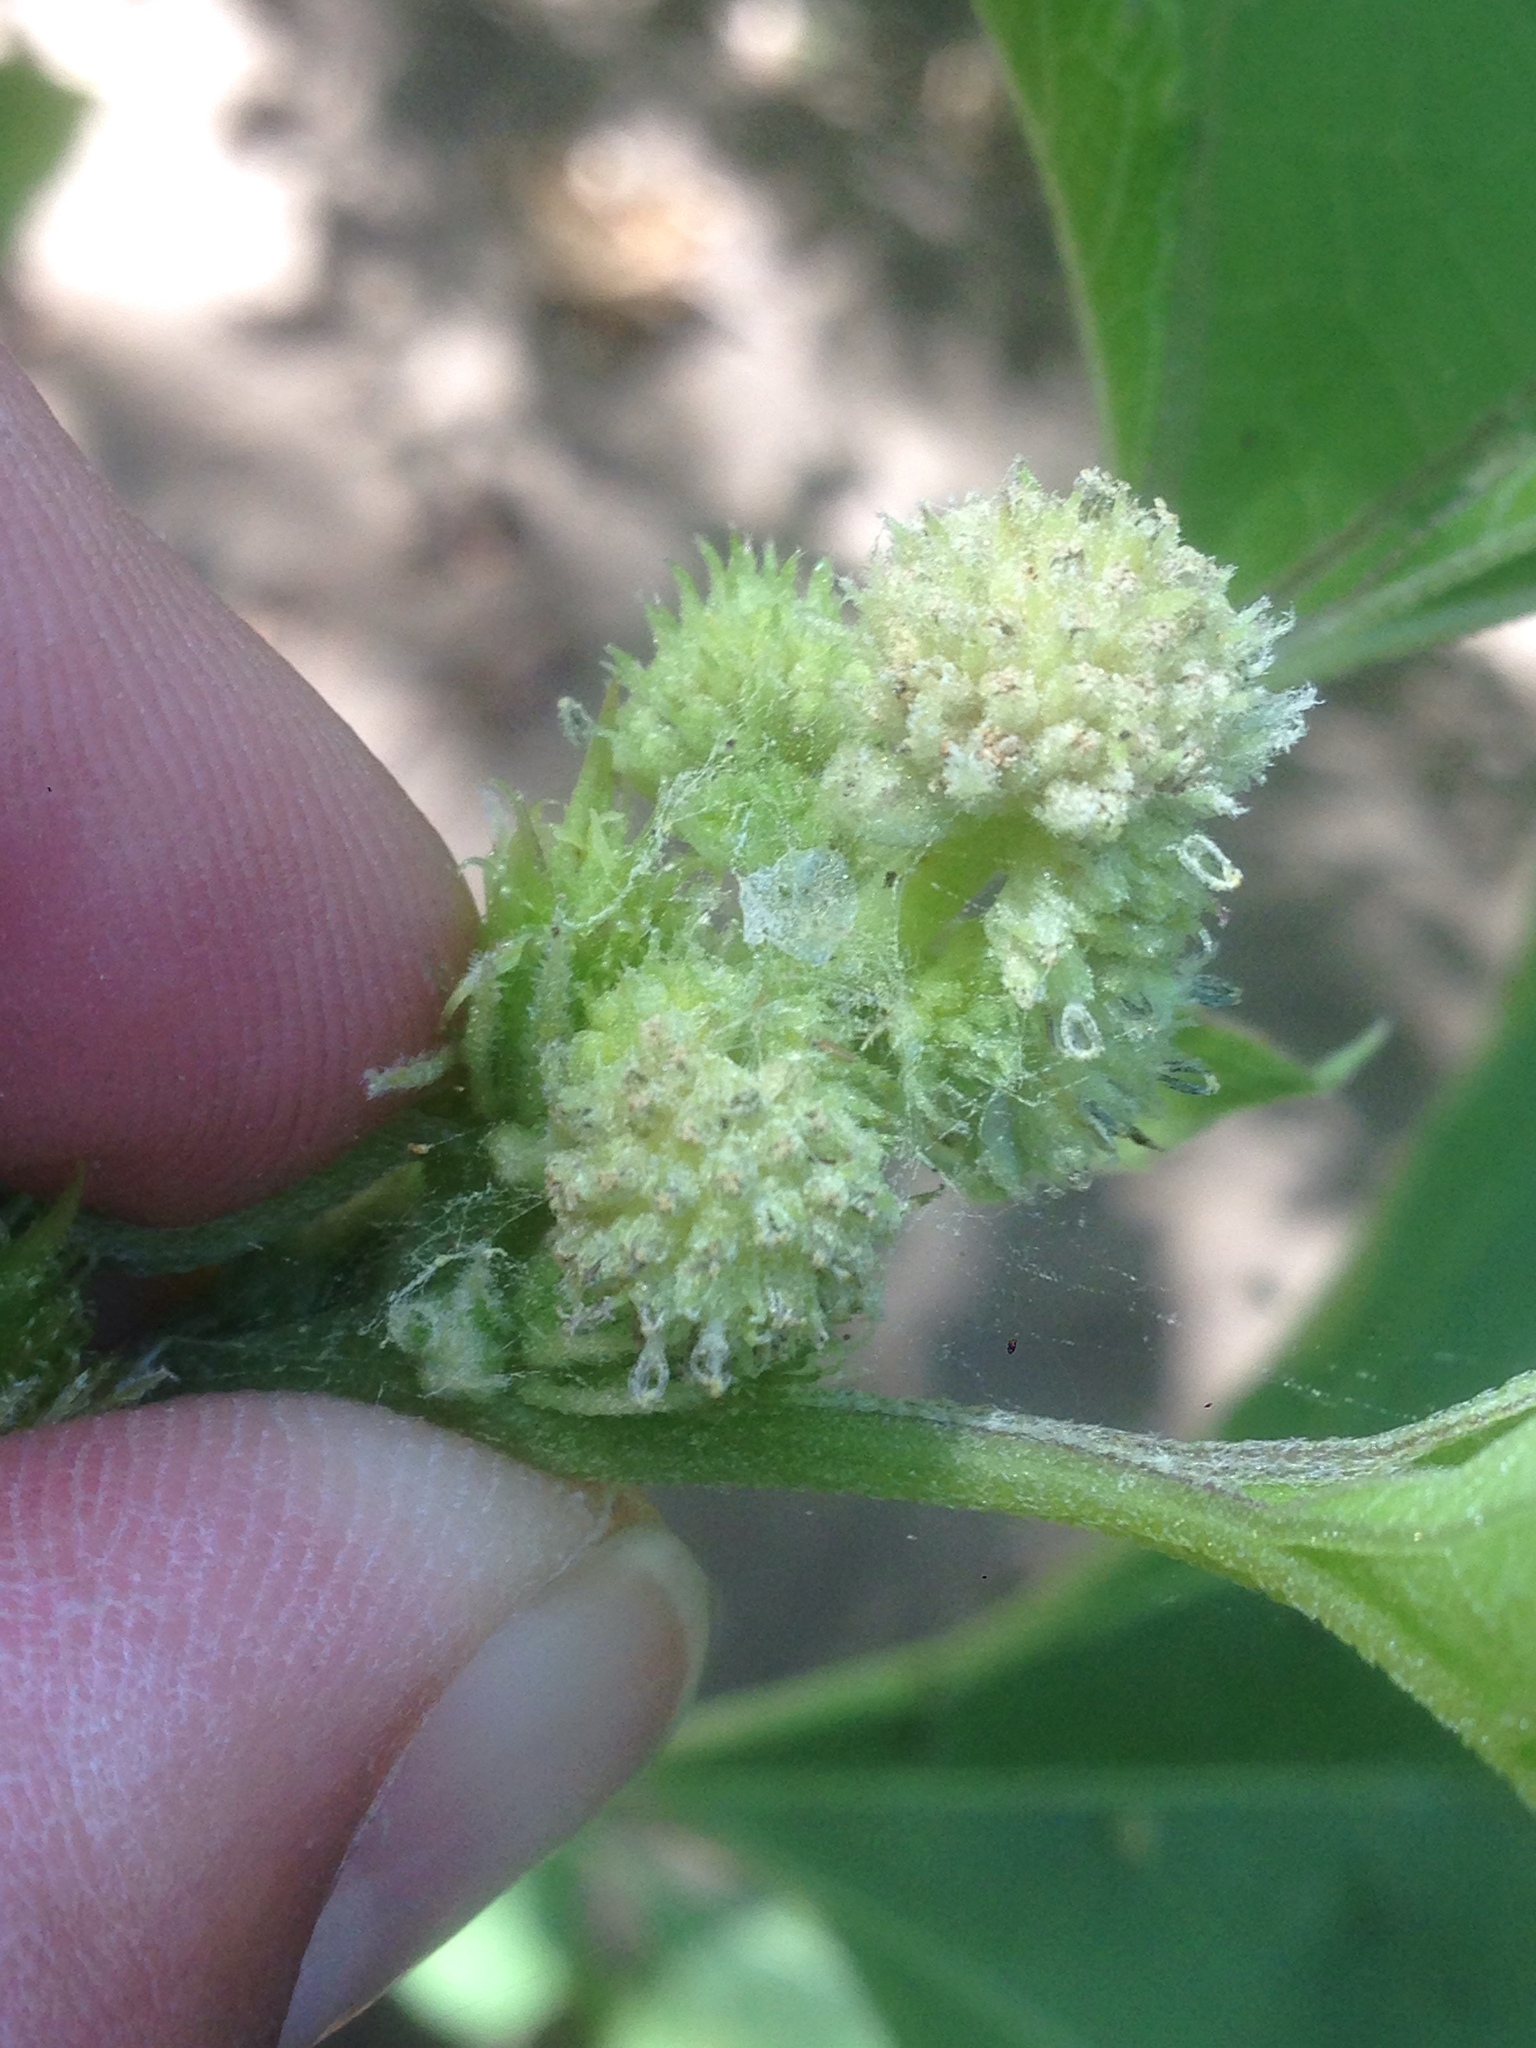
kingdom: Plantae
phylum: Tracheophyta
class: Magnoliopsida
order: Asterales
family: Asteraceae
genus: Xanthium
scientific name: Xanthium strumarium
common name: Rough cocklebur
